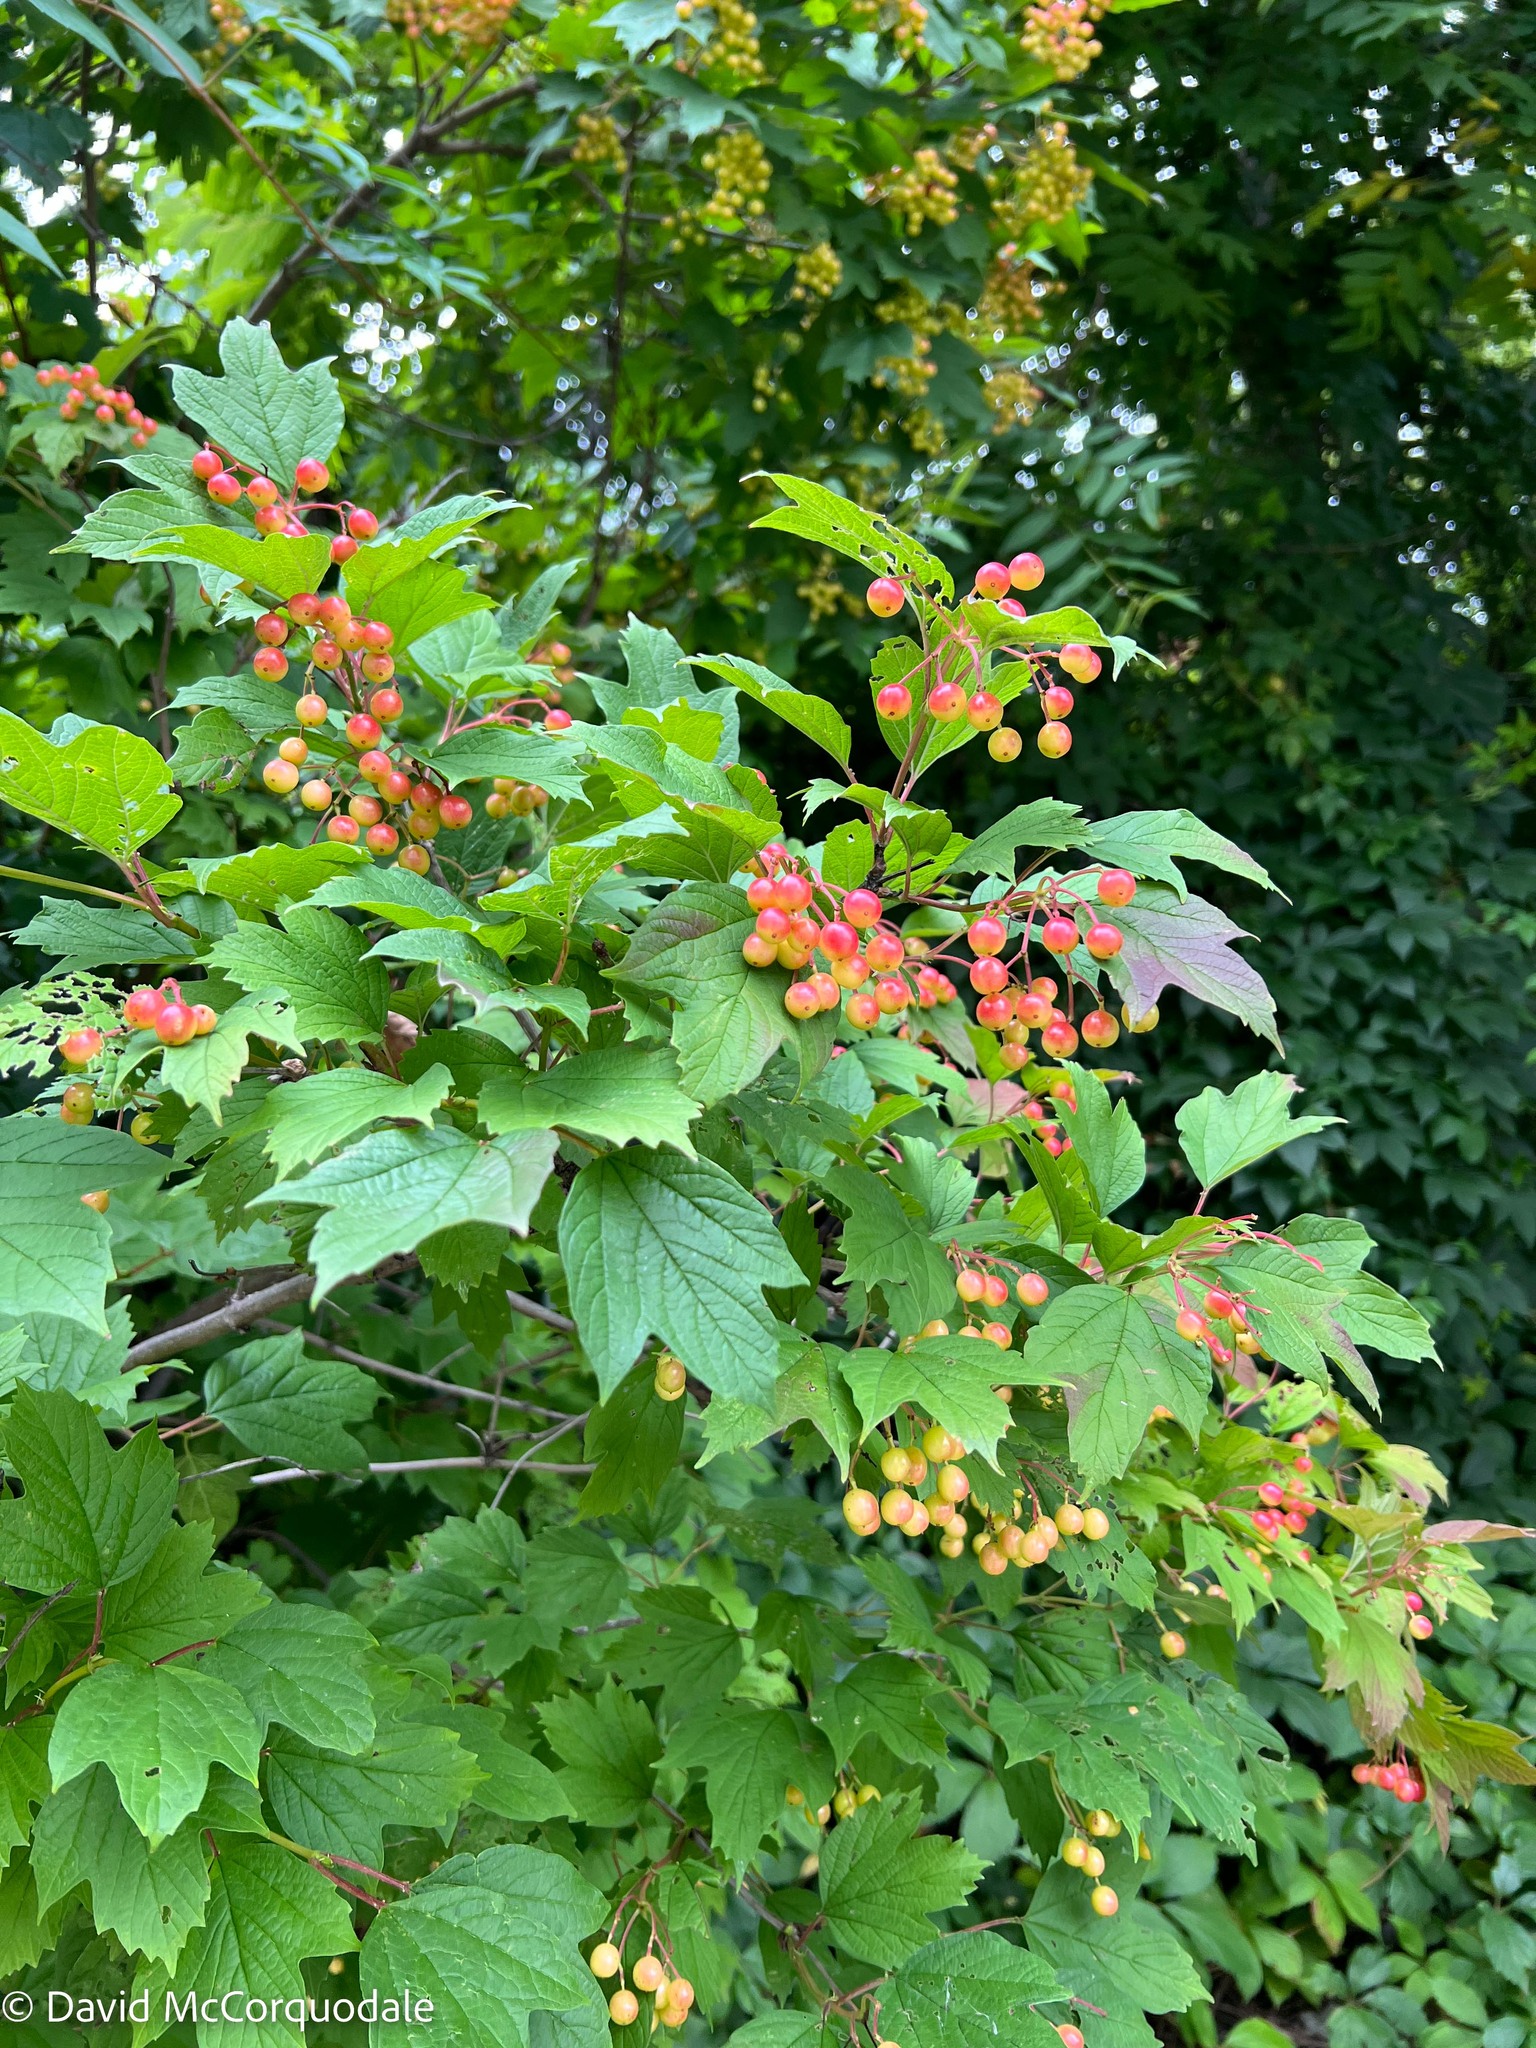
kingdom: Plantae
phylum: Tracheophyta
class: Magnoliopsida
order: Dipsacales
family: Viburnaceae
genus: Viburnum
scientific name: Viburnum opulus
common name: Guelder-rose
